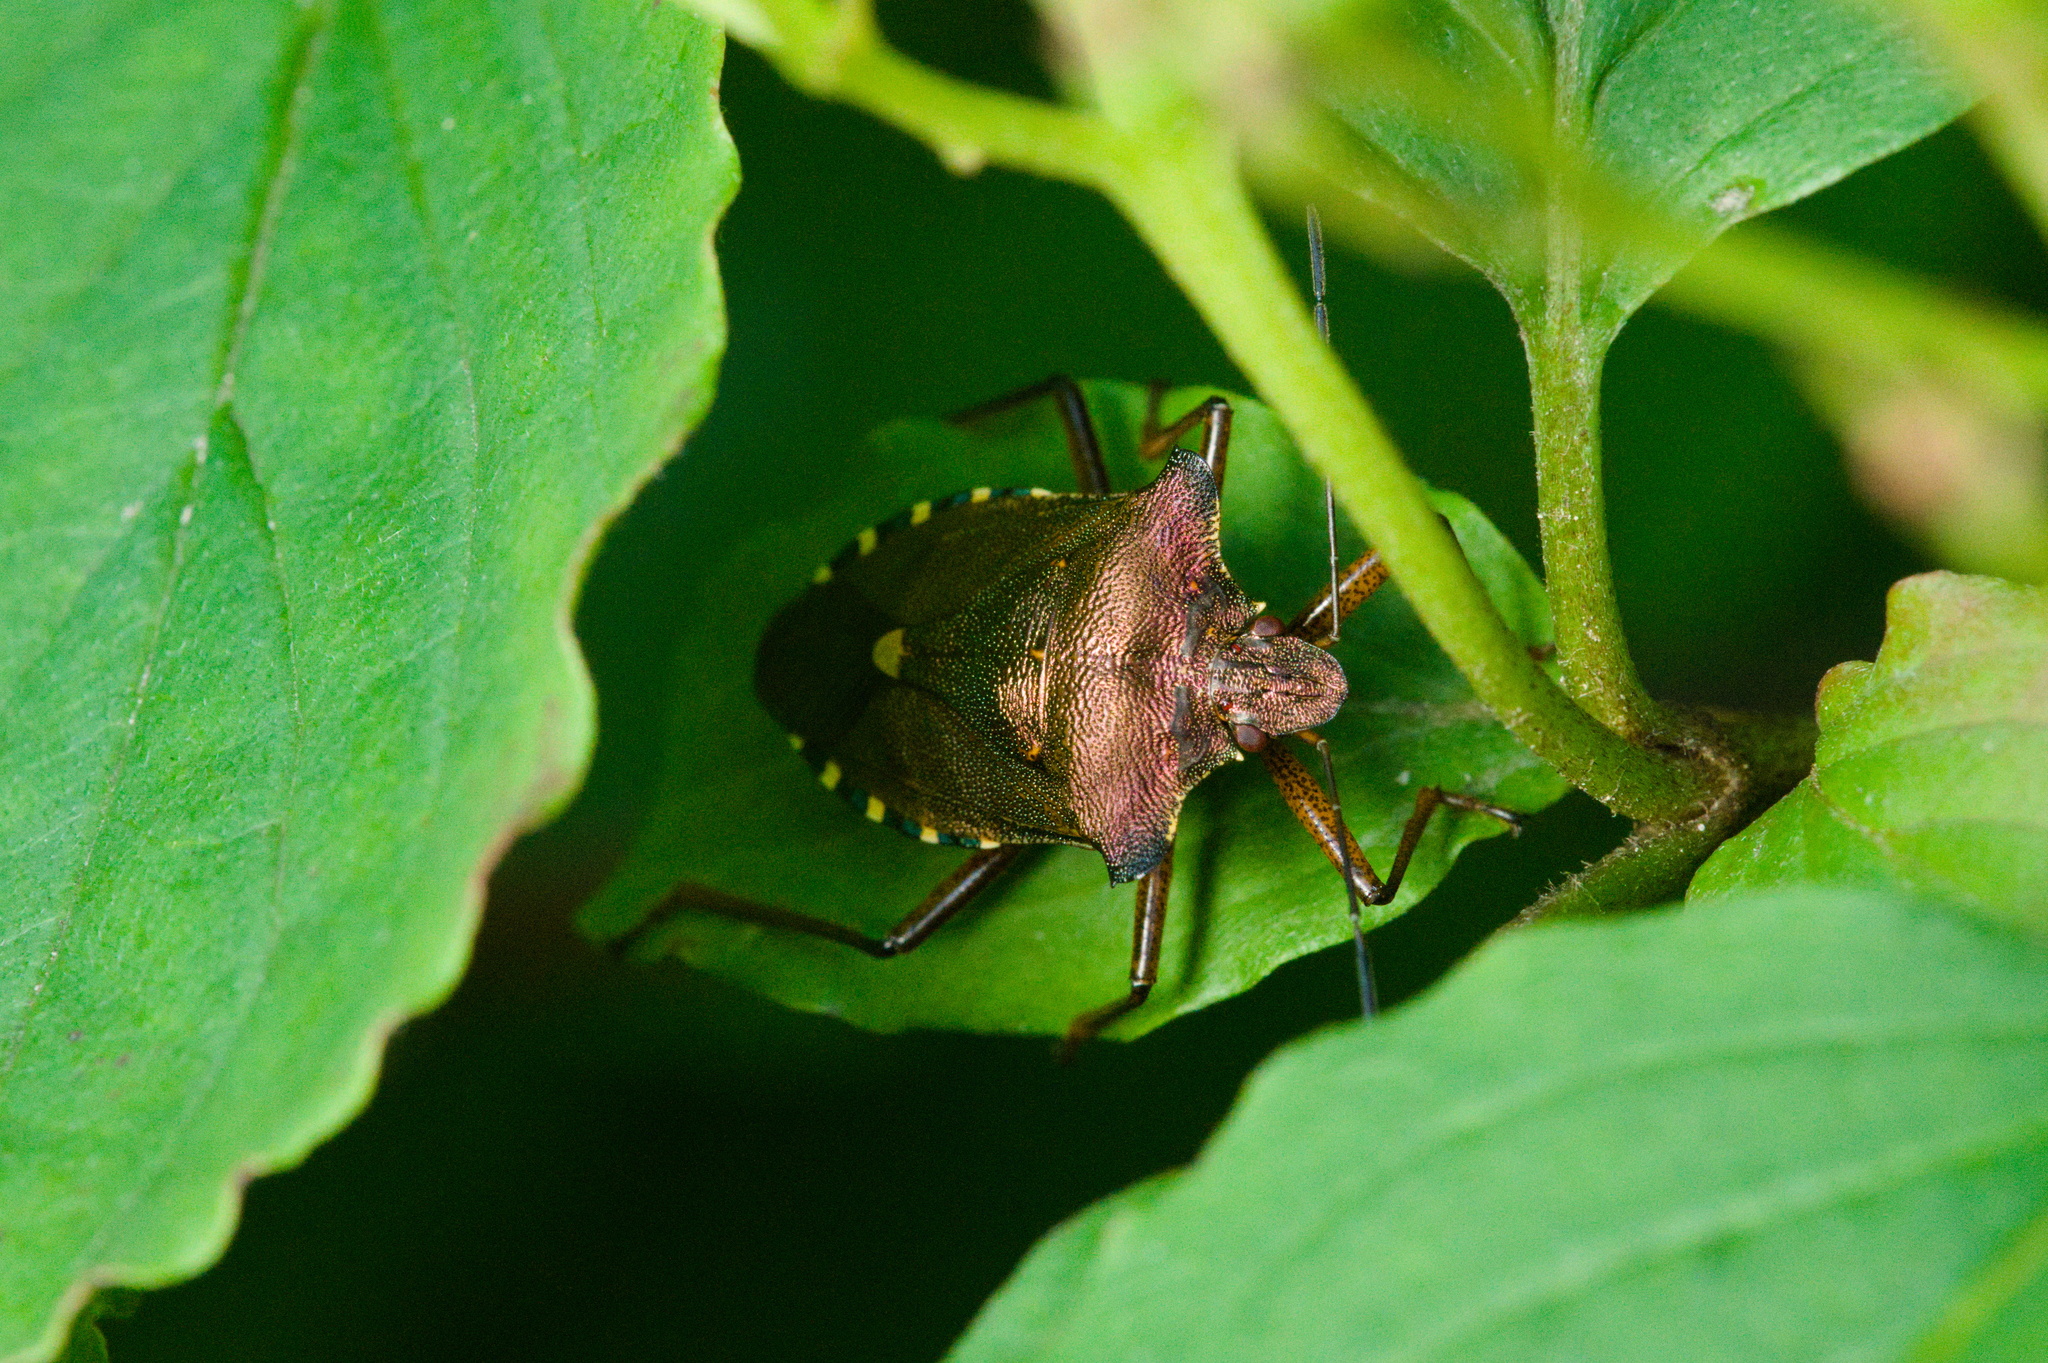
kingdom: Animalia
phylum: Arthropoda
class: Insecta
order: Hemiptera
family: Pentatomidae
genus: Pentatoma
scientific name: Pentatoma rufipes
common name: Forest bug
